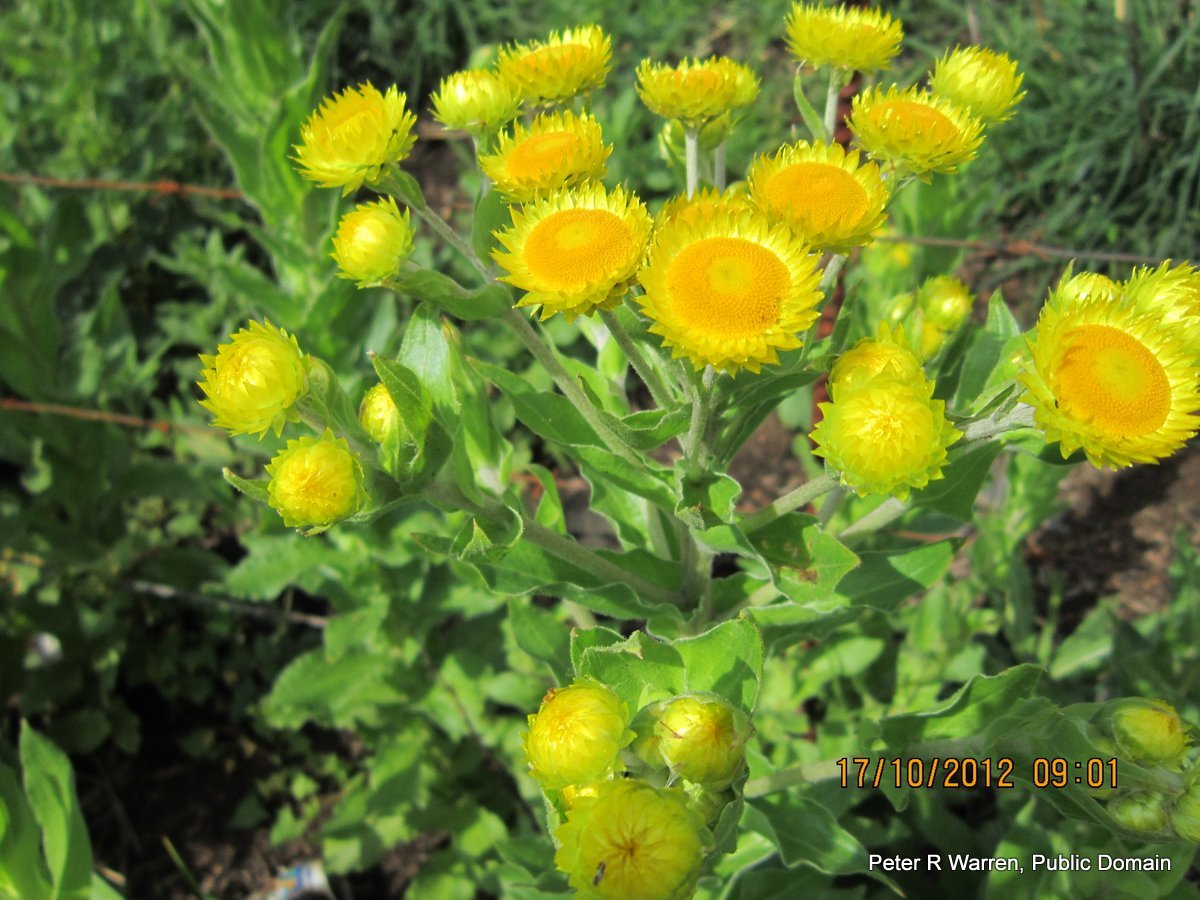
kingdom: Plantae
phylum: Tracheophyta
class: Magnoliopsida
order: Asterales
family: Asteraceae
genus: Helichrysum
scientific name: Helichrysum ruderale
